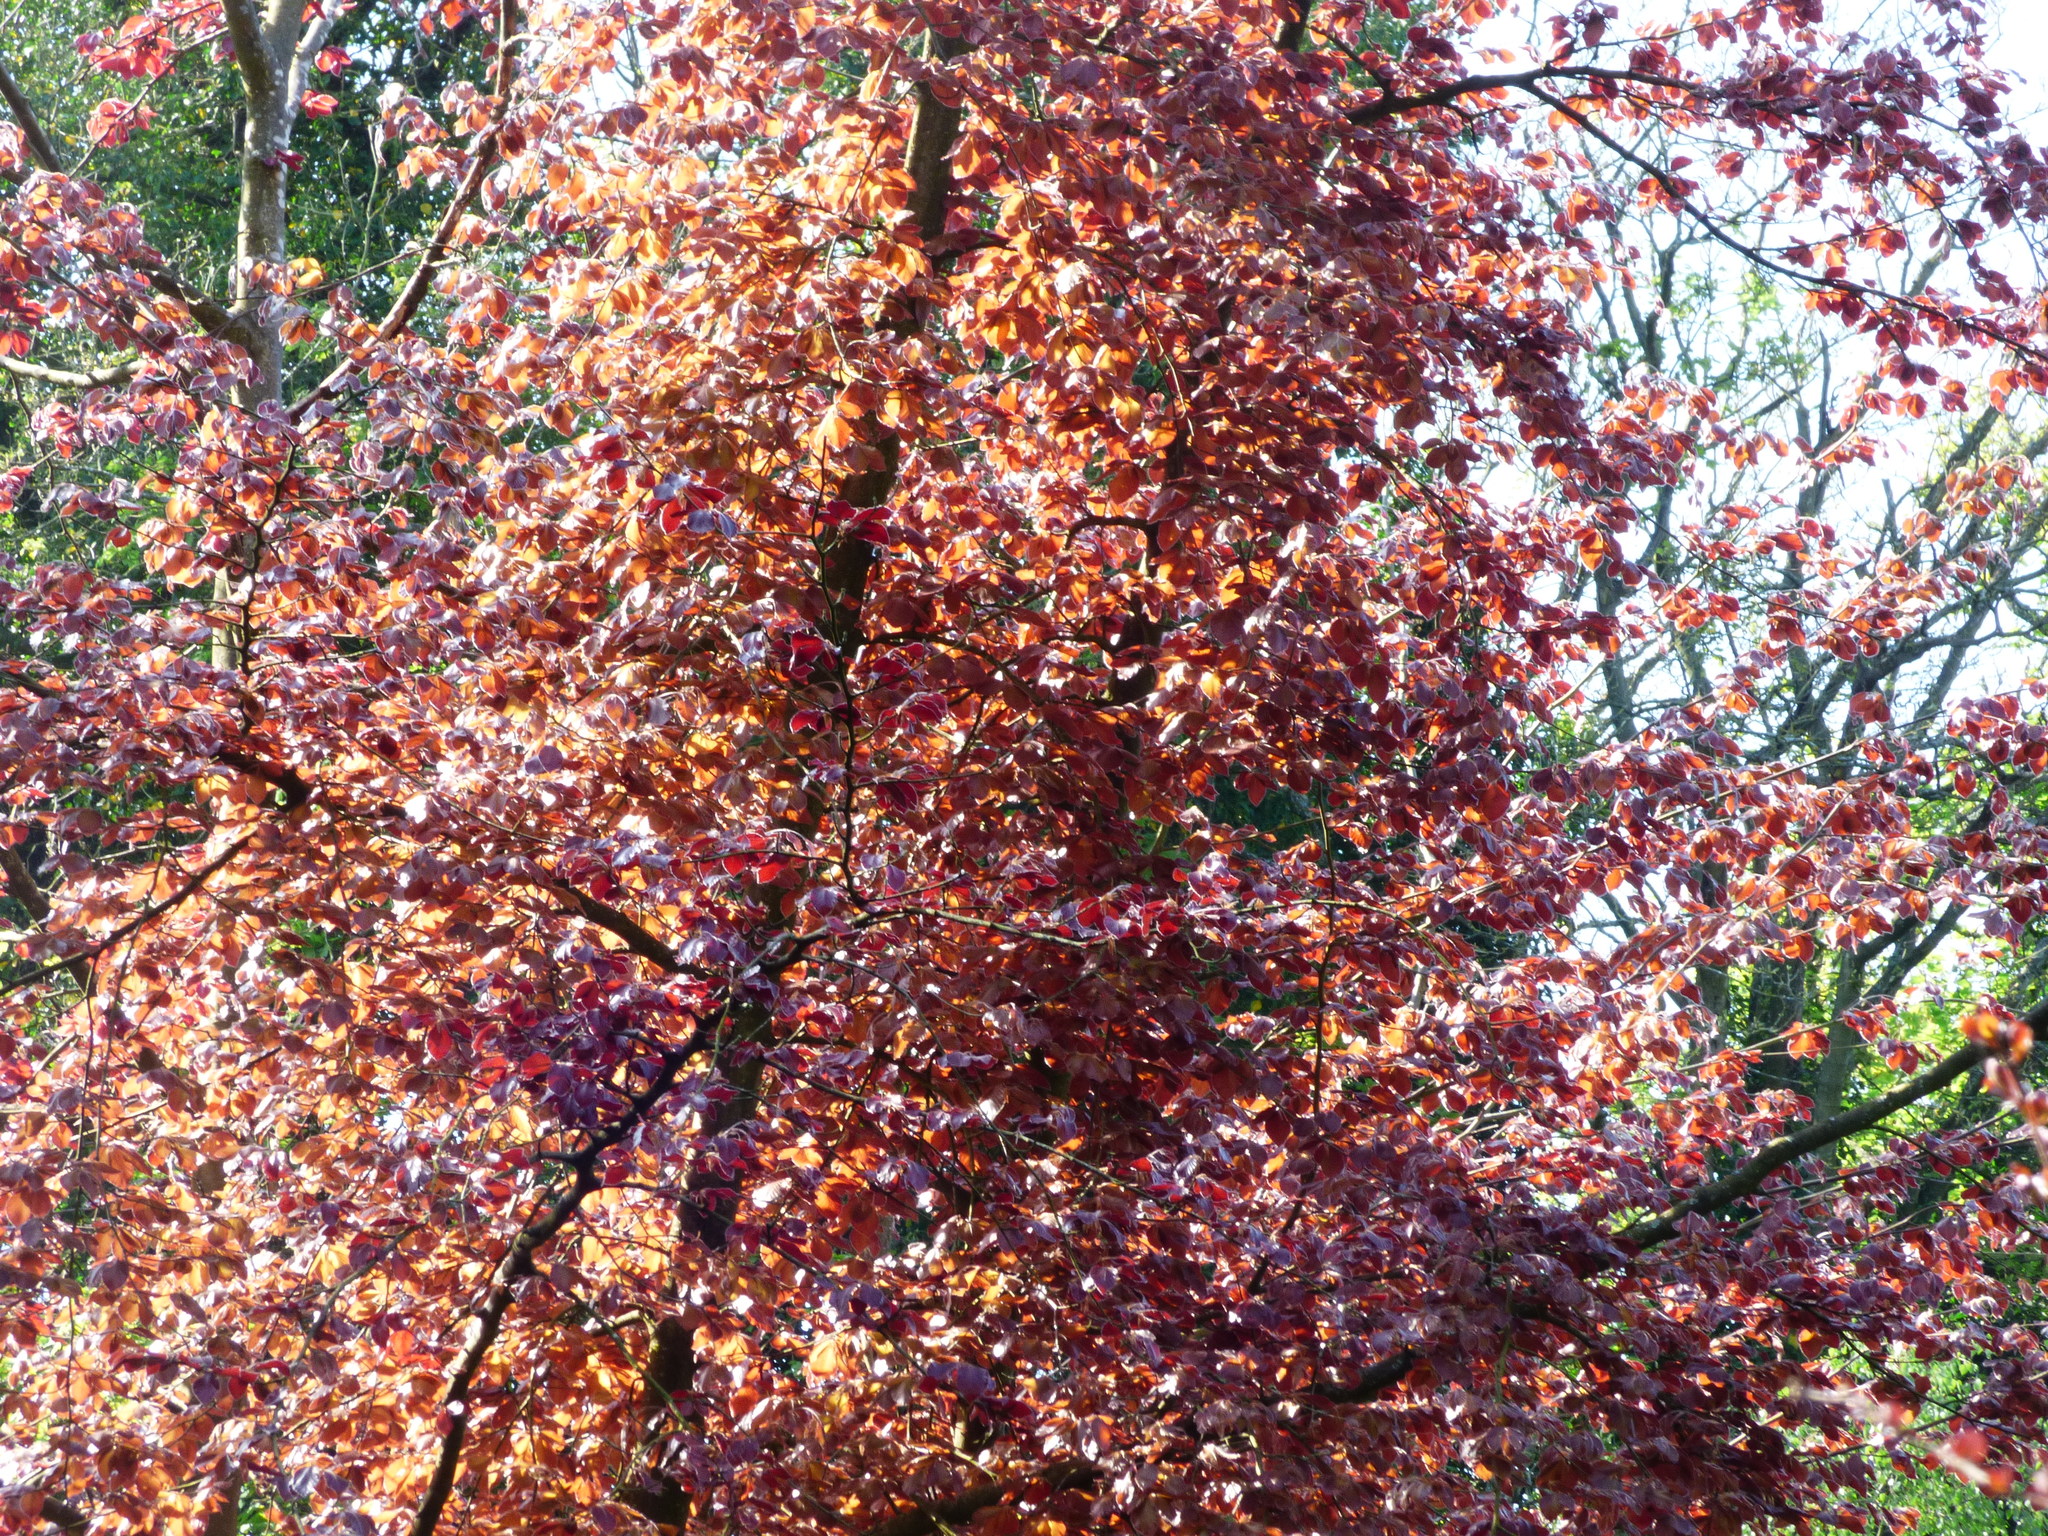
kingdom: Plantae
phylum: Tracheophyta
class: Magnoliopsida
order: Fagales
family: Fagaceae
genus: Fagus
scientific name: Fagus sylvatica
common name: Beech
